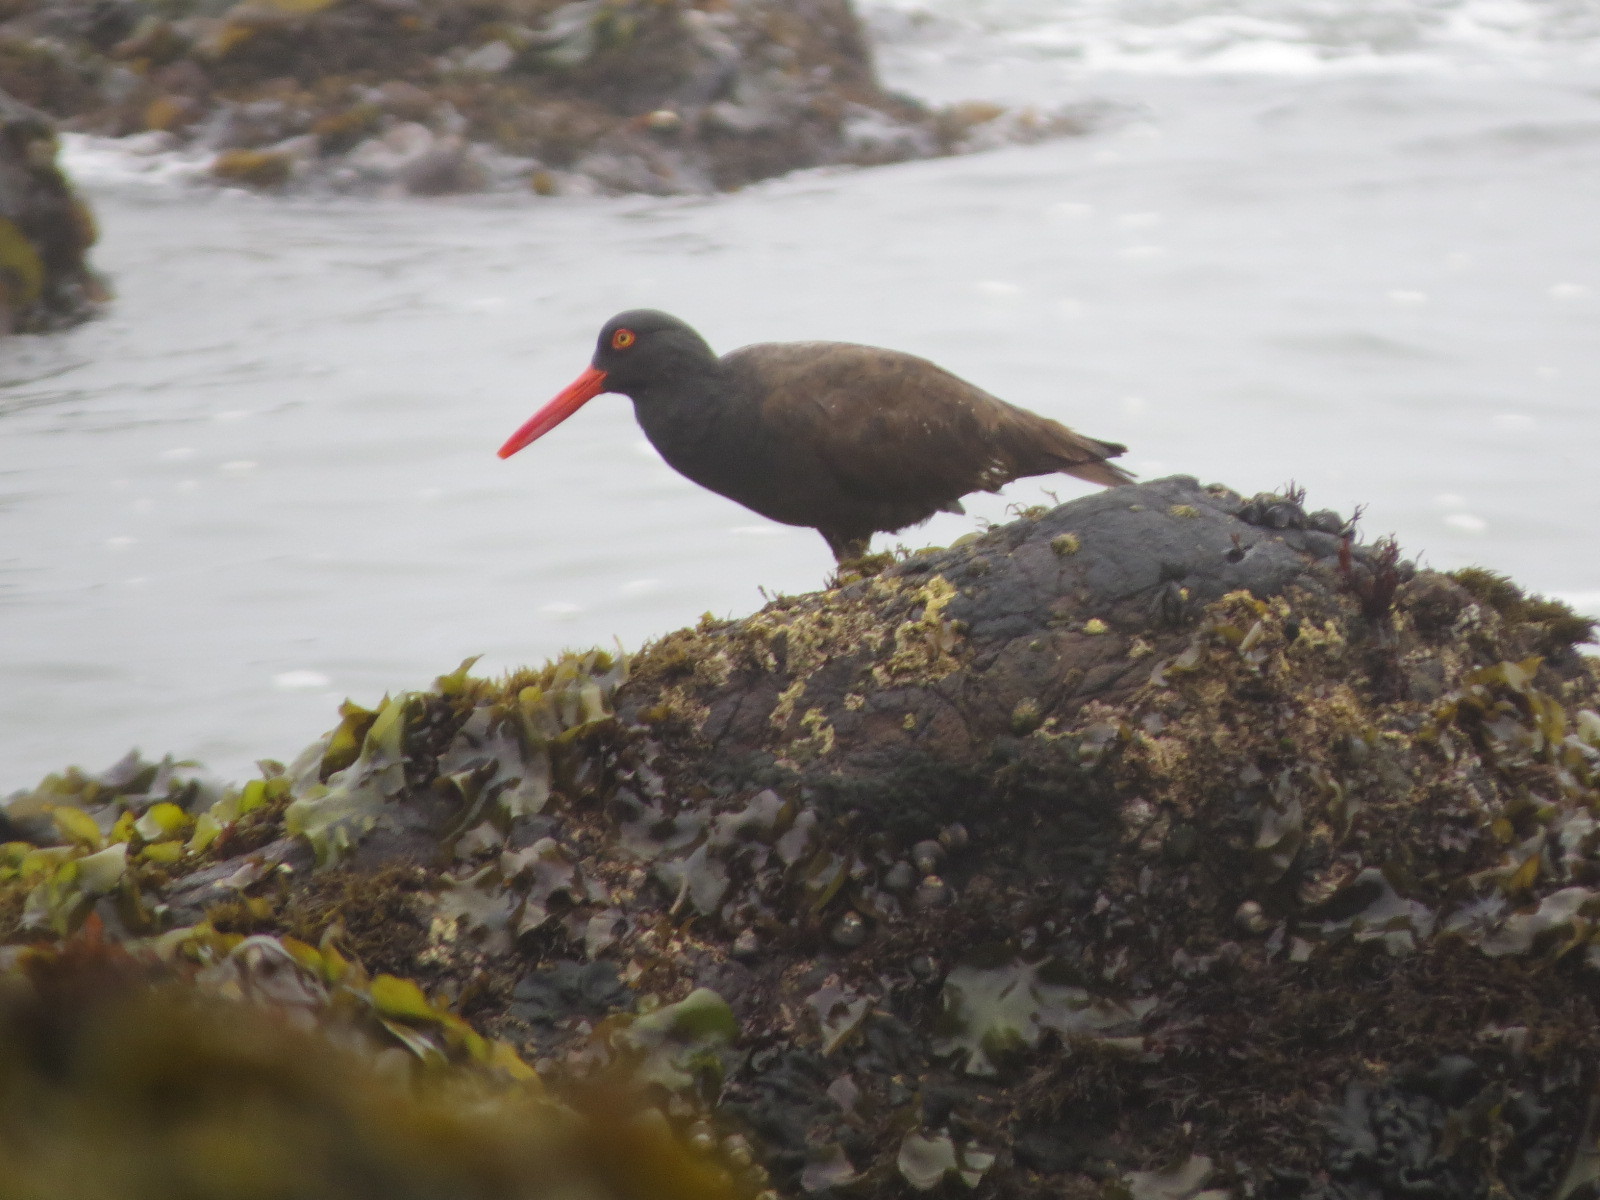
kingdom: Animalia
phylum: Chordata
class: Aves
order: Charadriiformes
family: Haematopodidae
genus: Haematopus
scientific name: Haematopus bachmani
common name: Black oystercatcher
